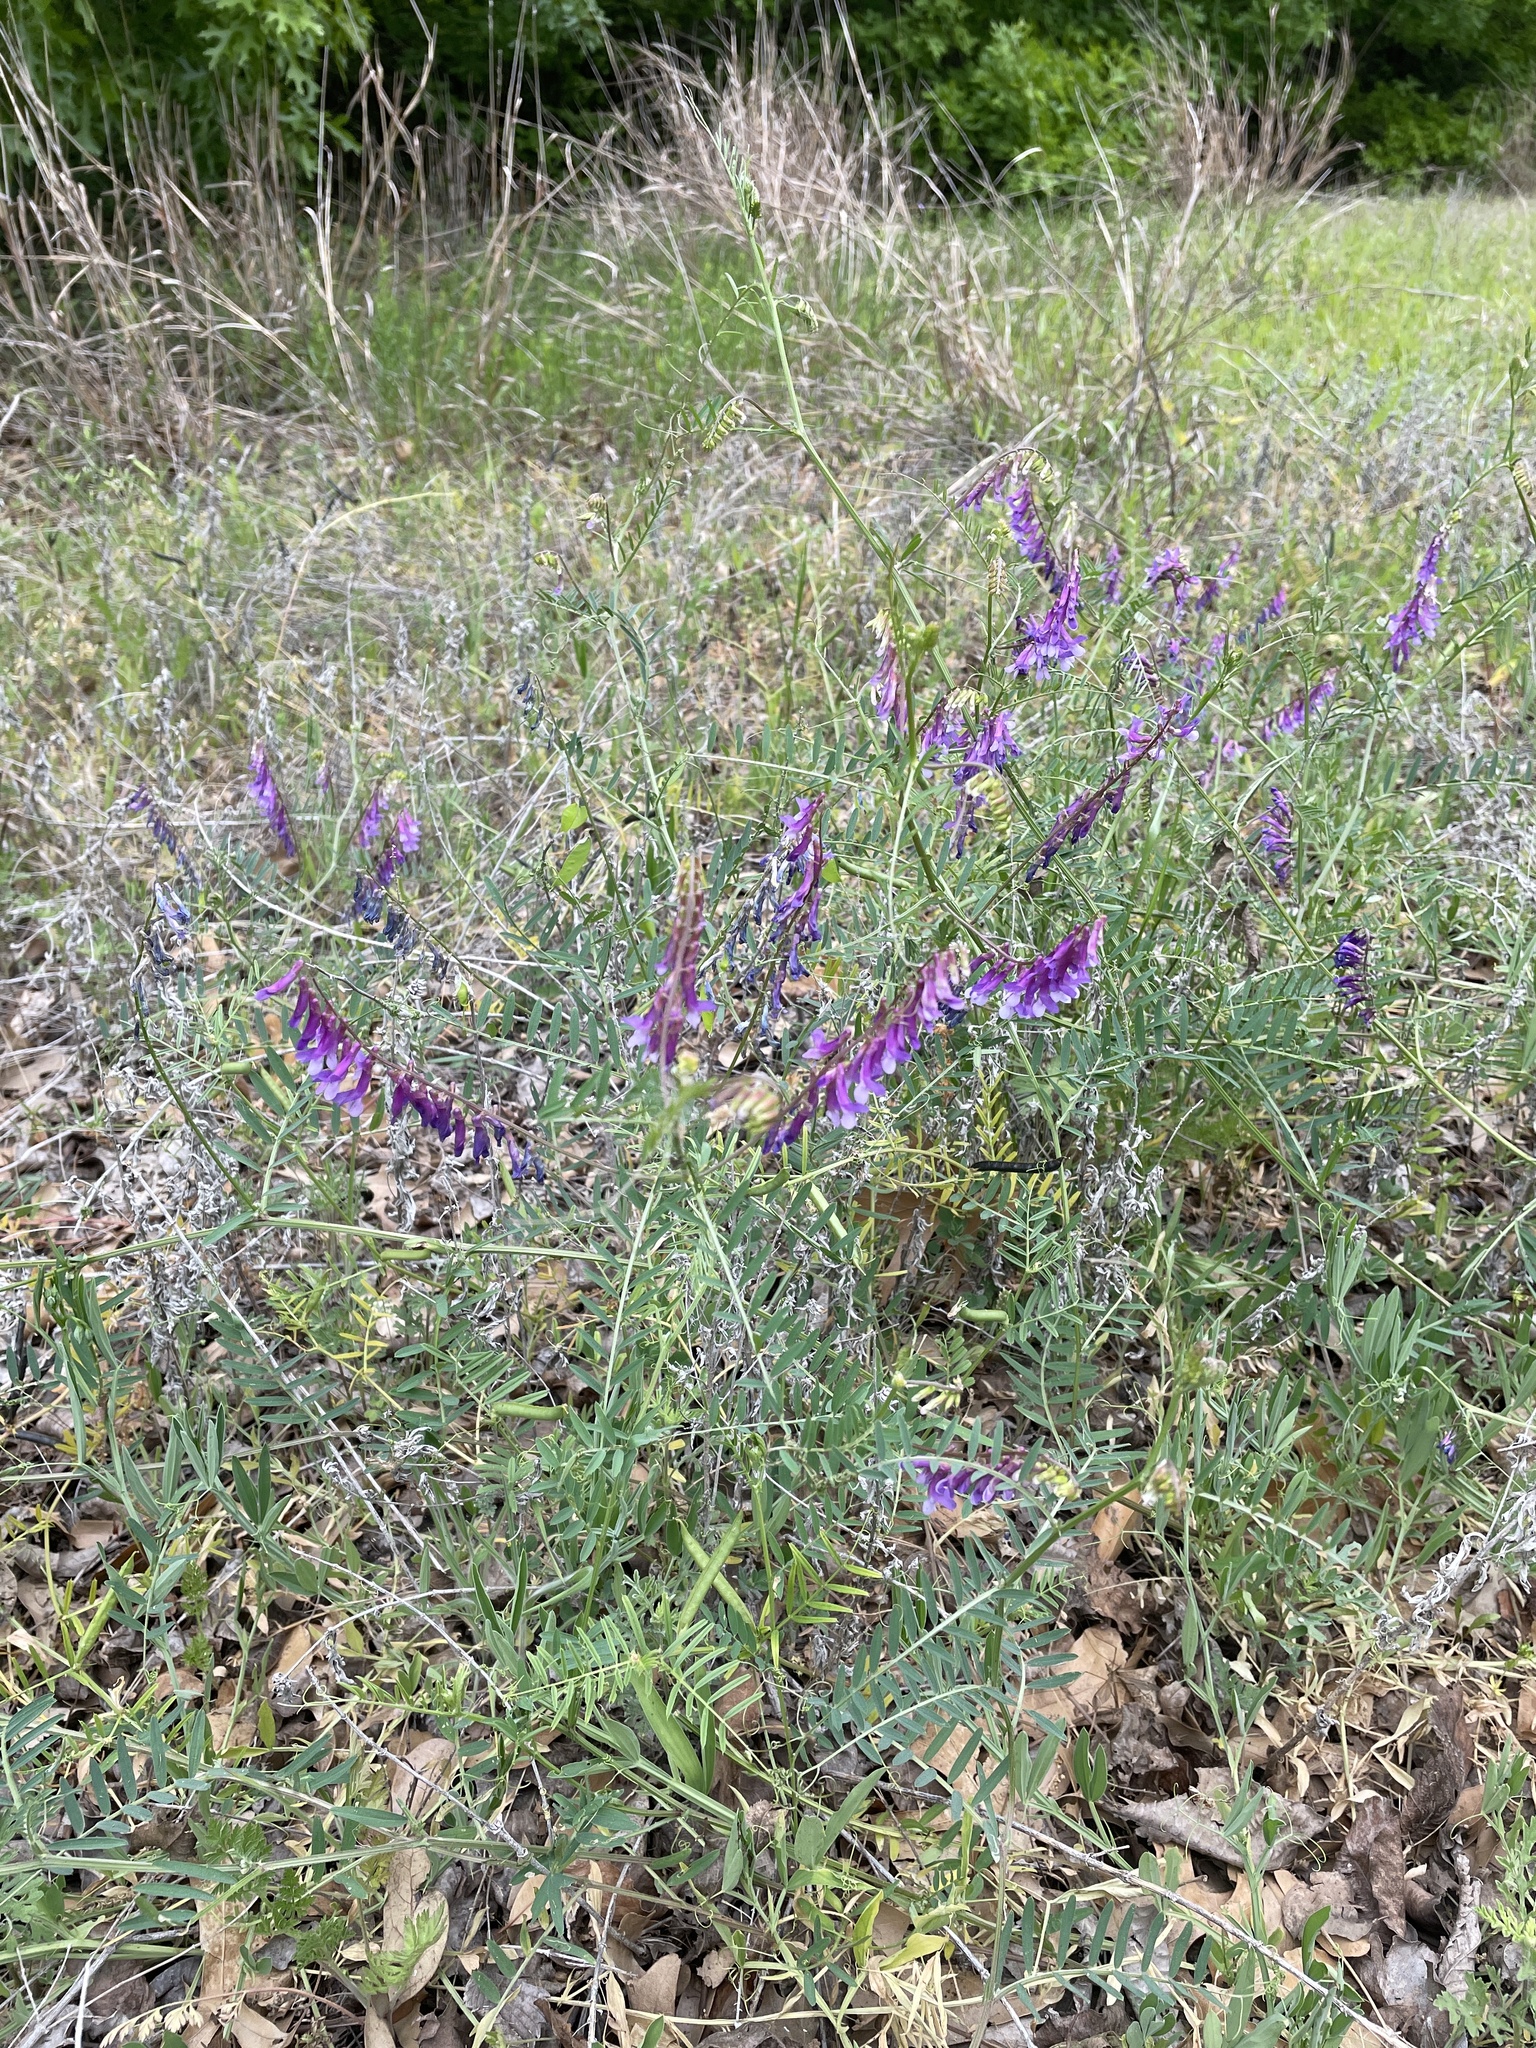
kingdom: Plantae
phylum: Tracheophyta
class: Magnoliopsida
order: Fabales
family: Fabaceae
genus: Vicia
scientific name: Vicia villosa
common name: Fodder vetch
